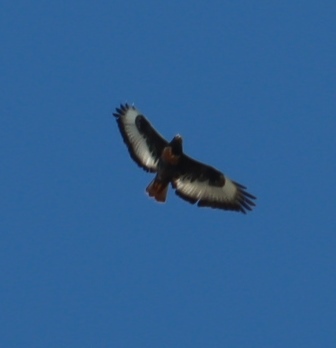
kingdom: Animalia
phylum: Chordata
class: Aves
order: Accipitriformes
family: Accipitridae
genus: Buteo
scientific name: Buteo rufofuscus
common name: Jackal buzzard
